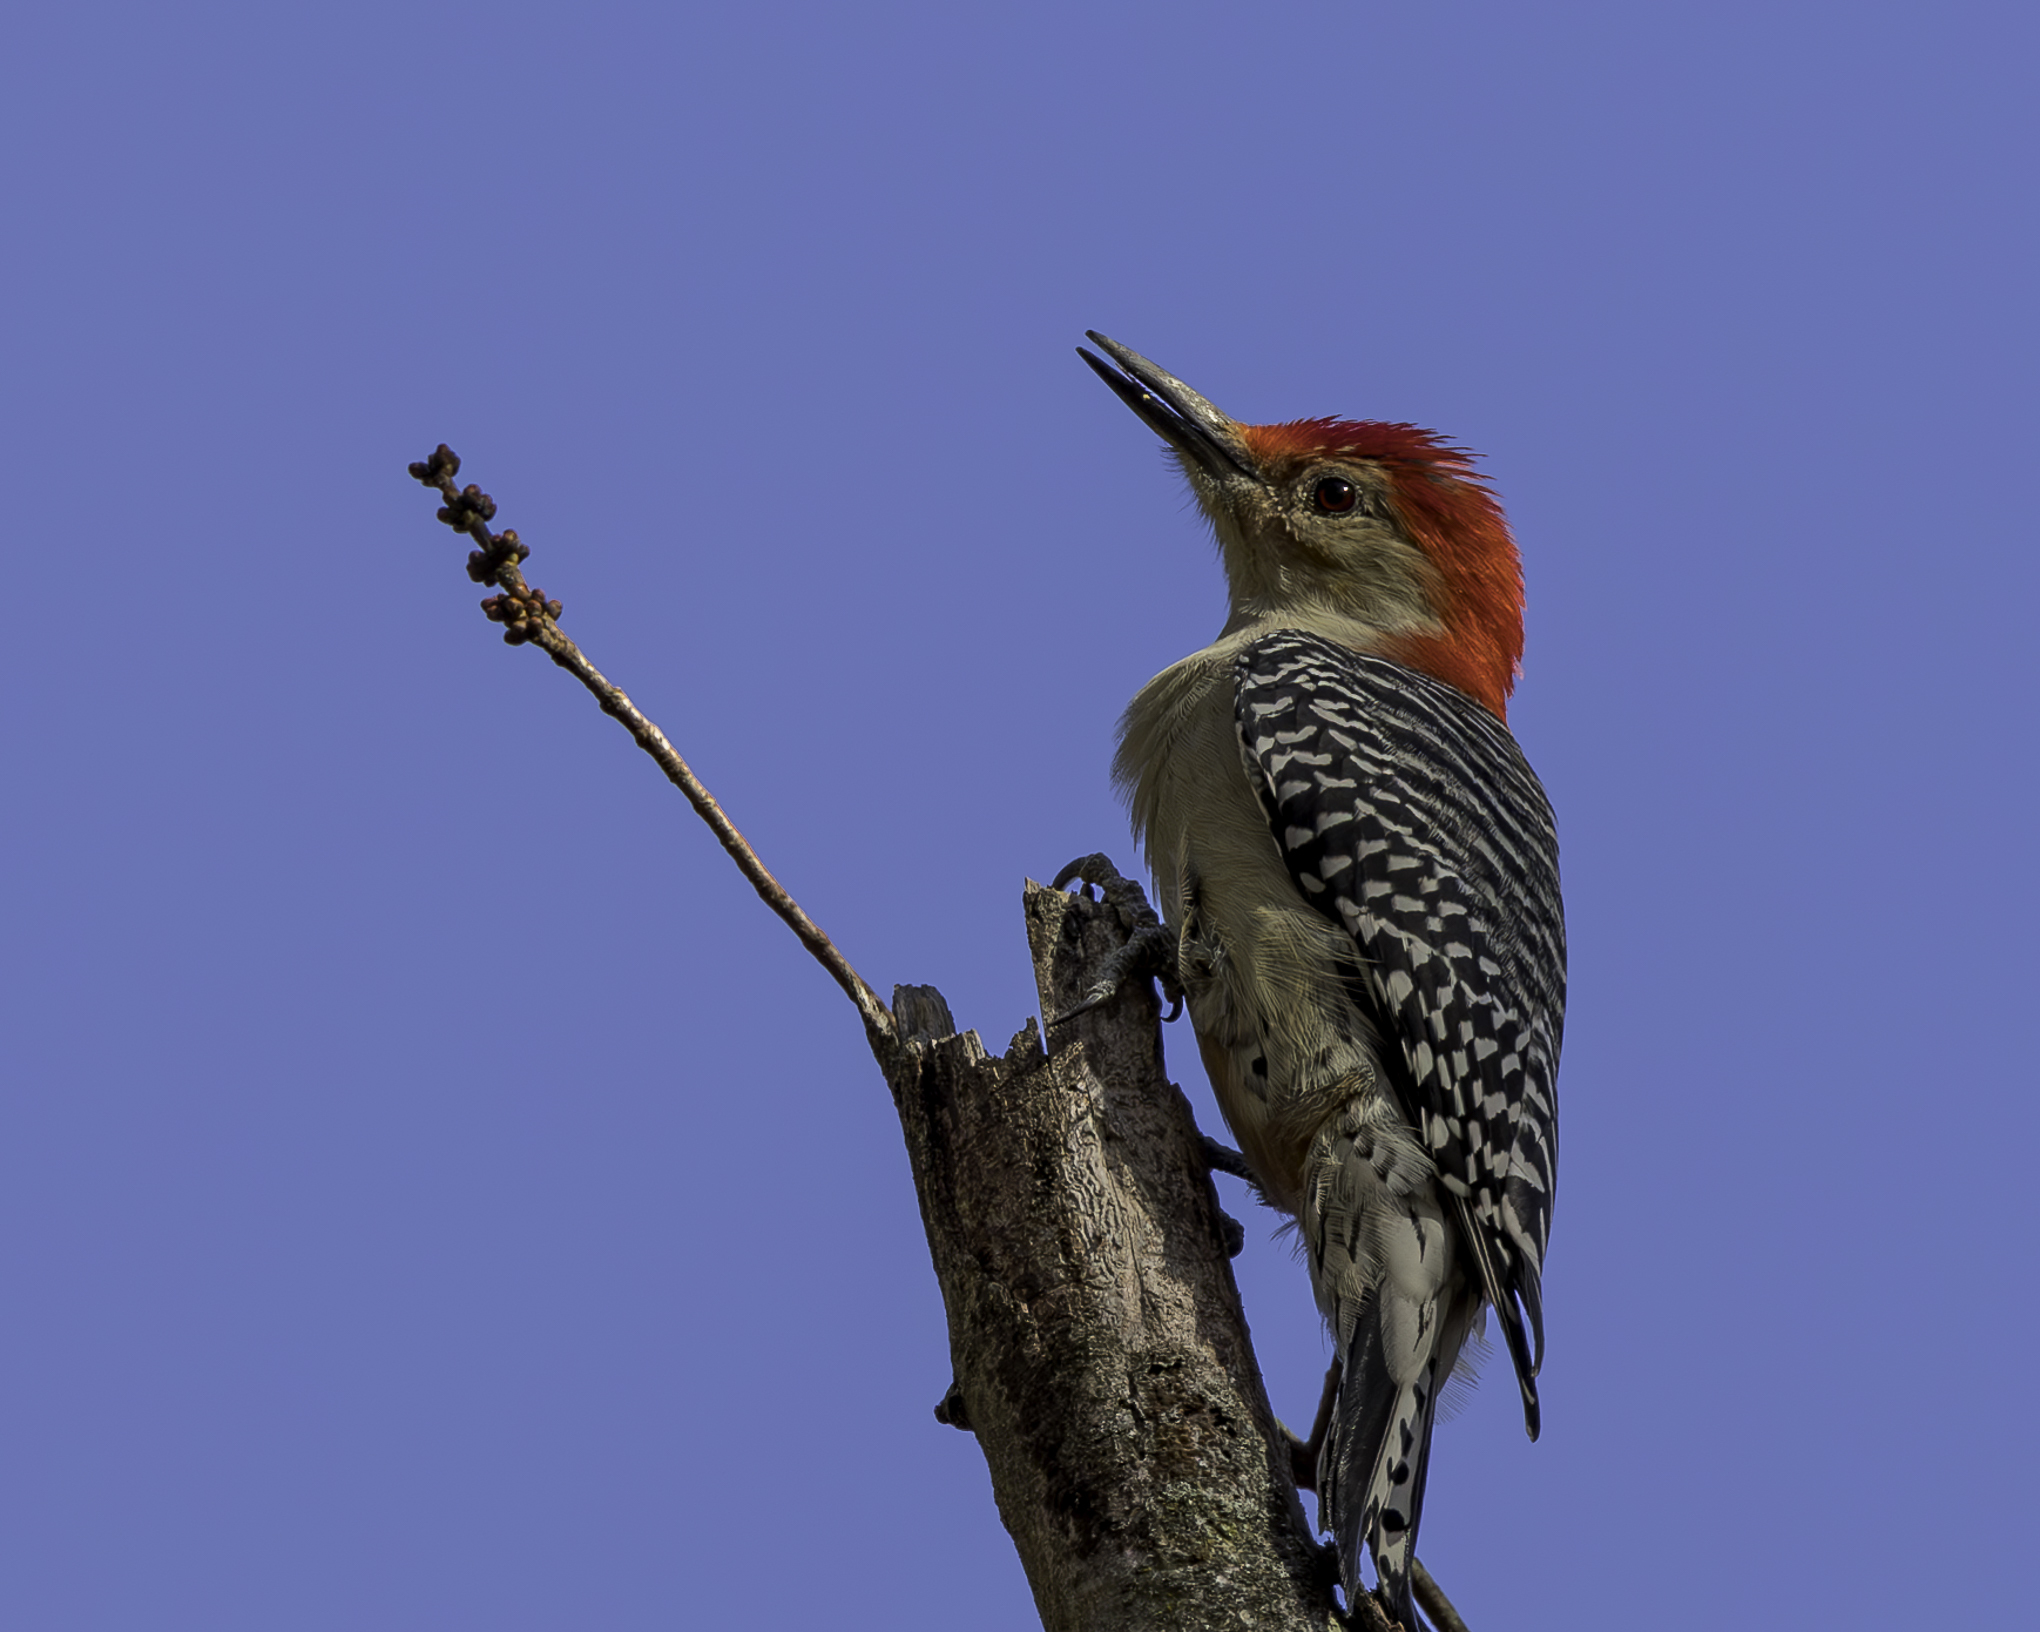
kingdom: Animalia
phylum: Chordata
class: Aves
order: Piciformes
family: Picidae
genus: Melanerpes
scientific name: Melanerpes carolinus
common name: Red-bellied woodpecker
